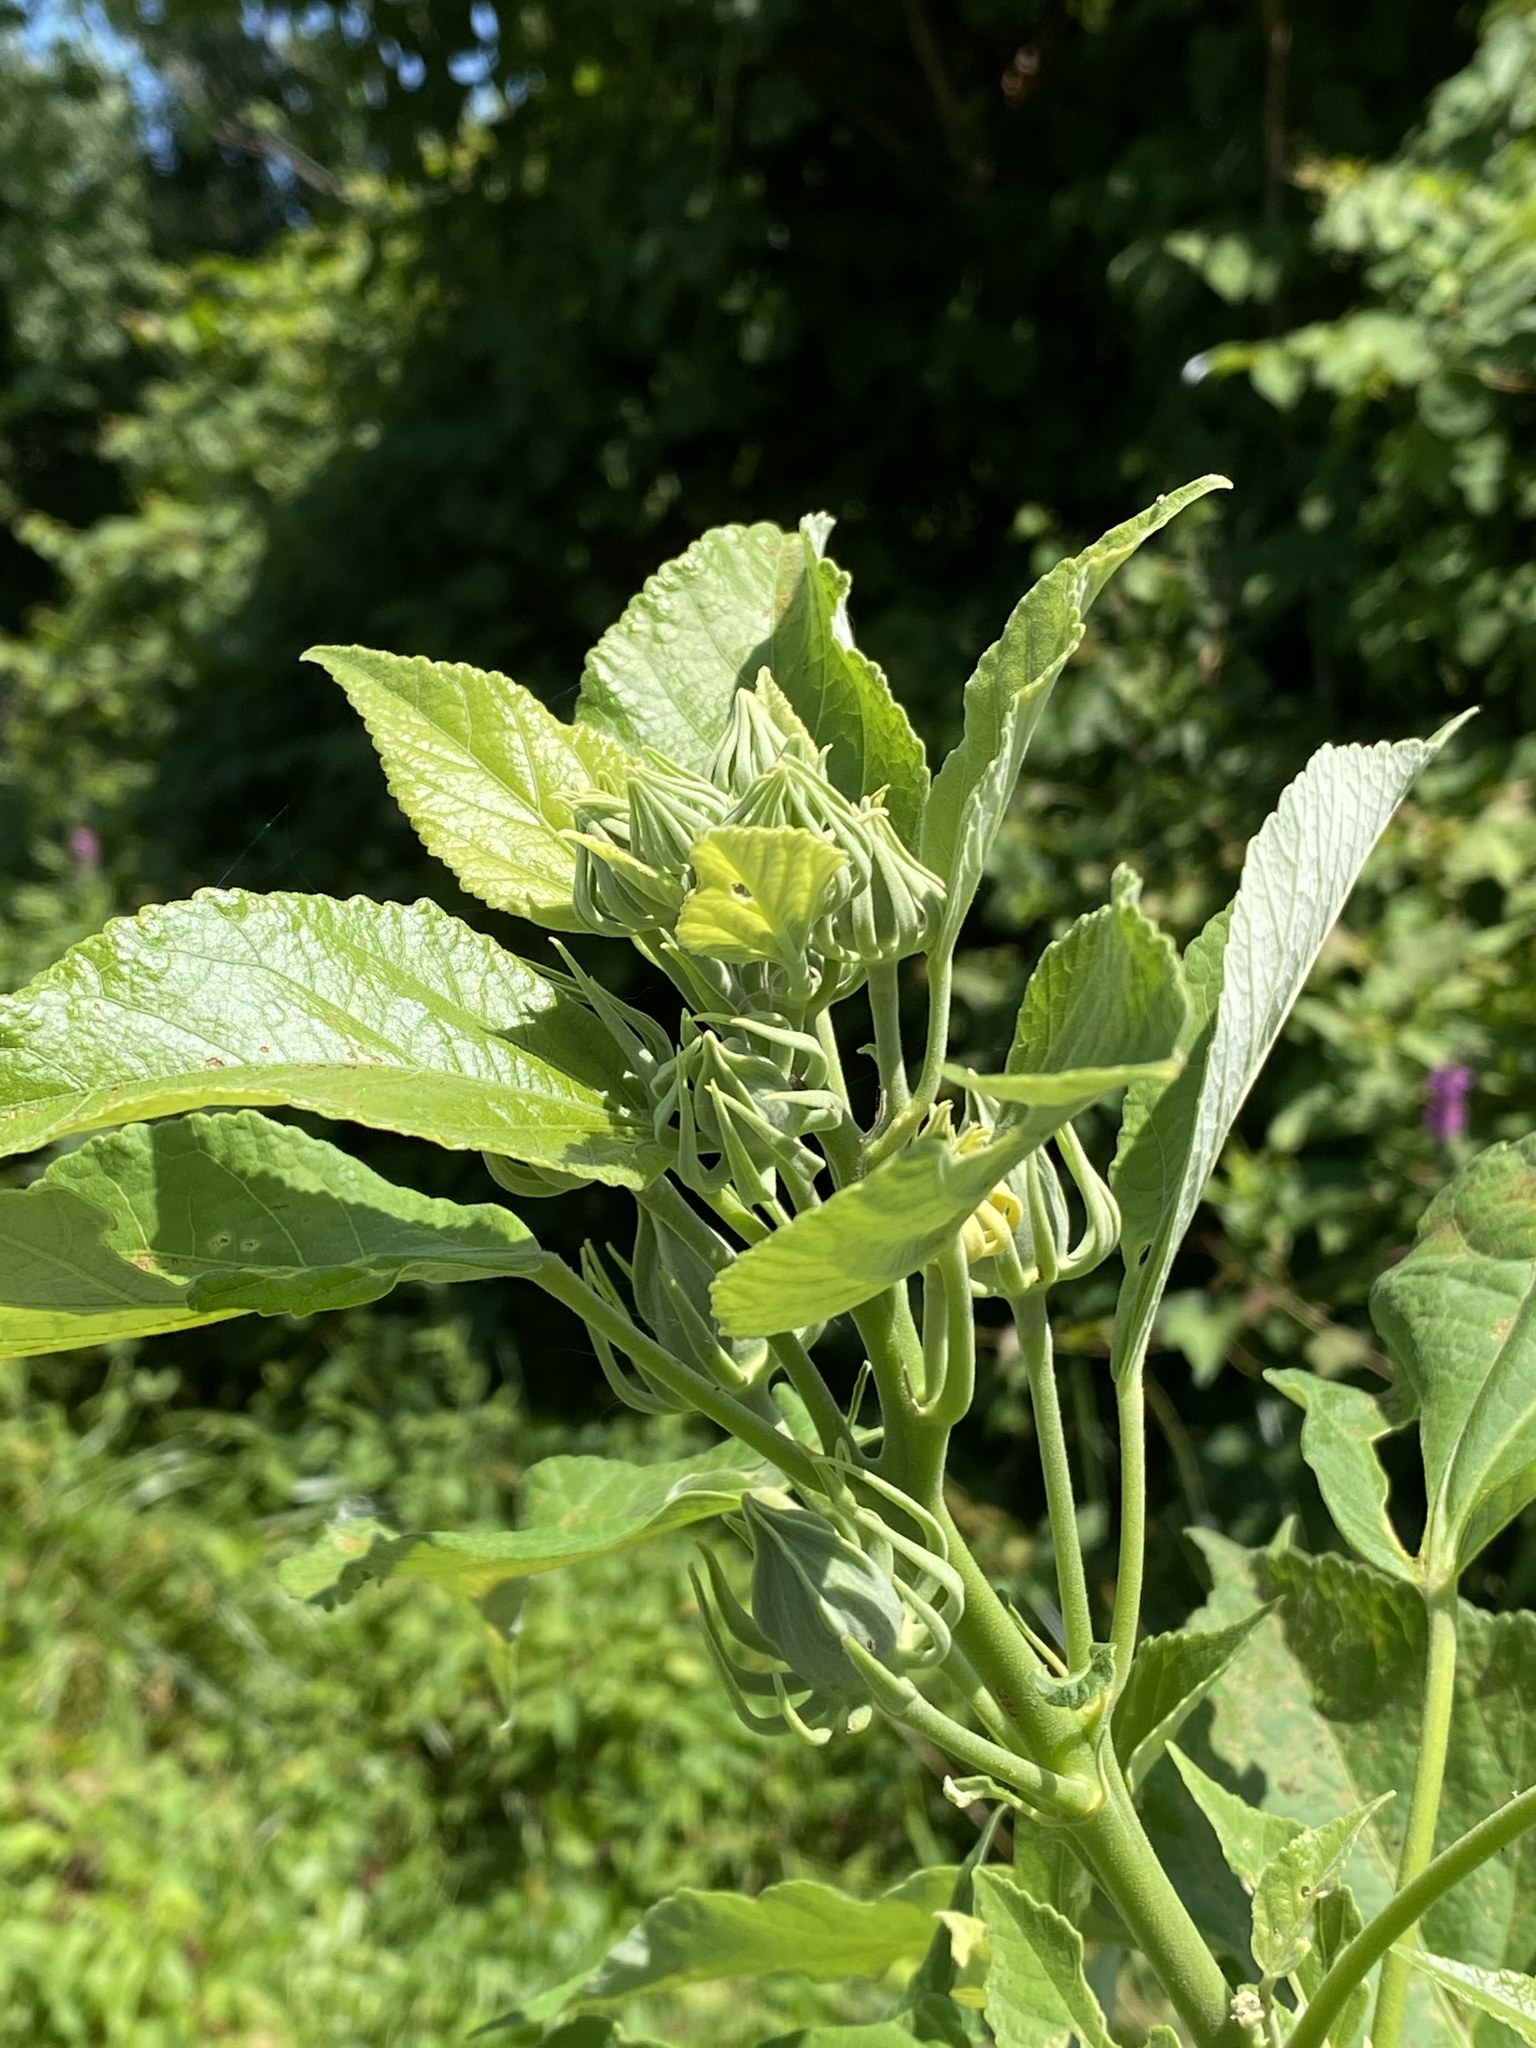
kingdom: Plantae
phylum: Tracheophyta
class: Magnoliopsida
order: Malvales
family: Malvaceae
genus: Hibiscus
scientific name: Hibiscus moscheutos
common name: Common rose-mallow
